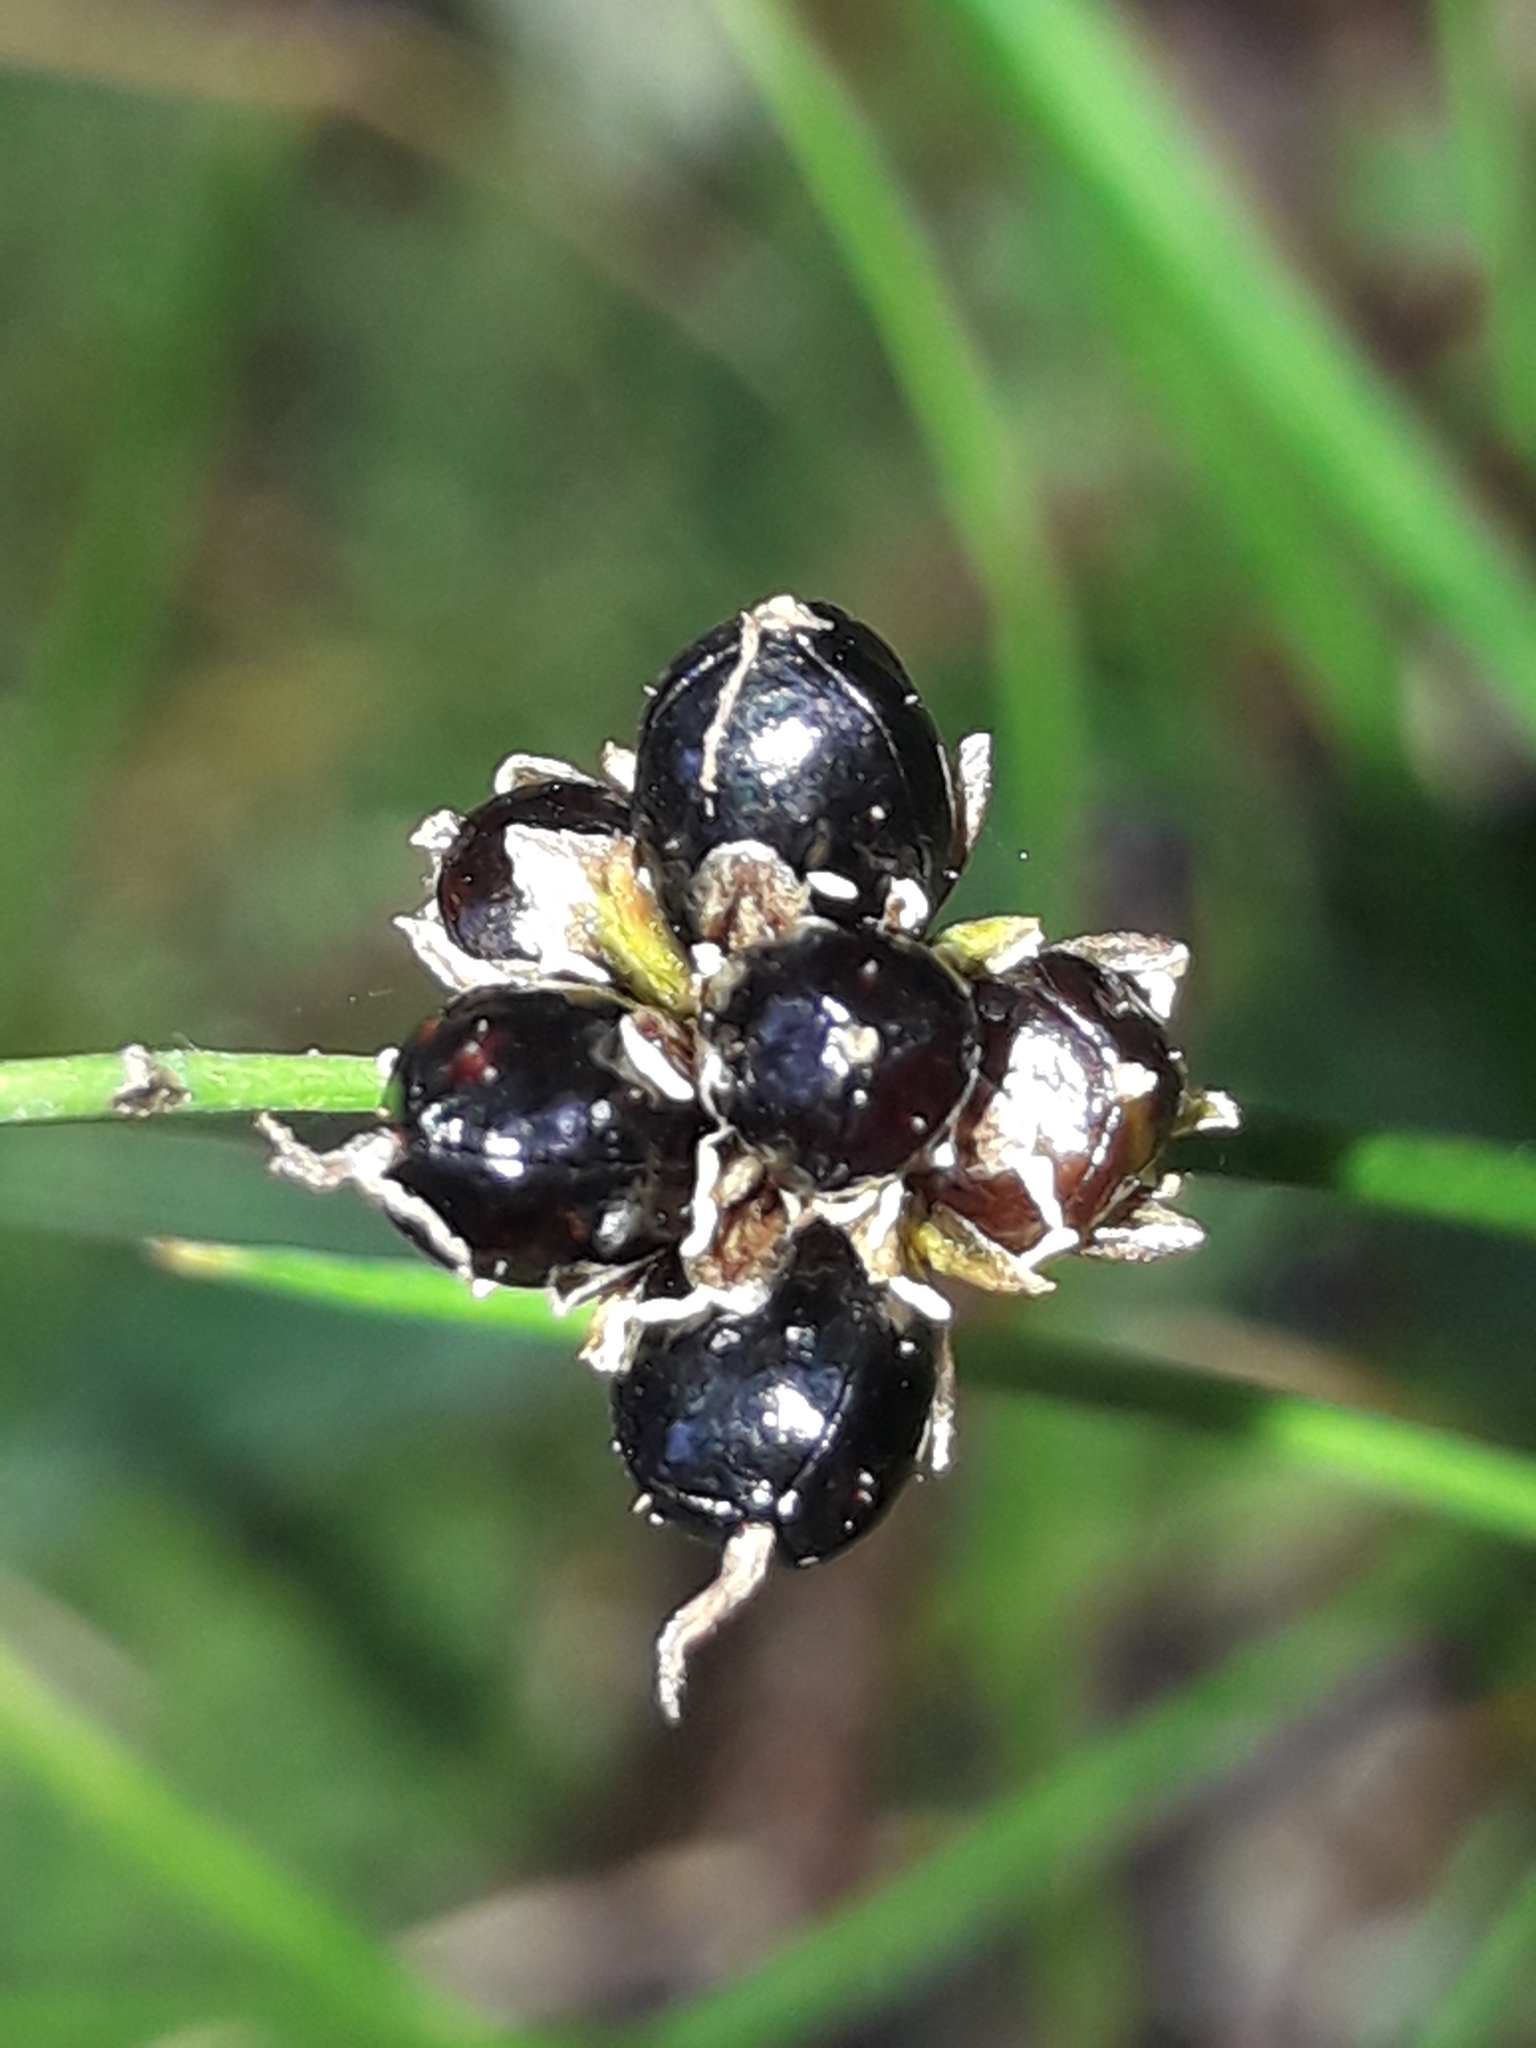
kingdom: Plantae
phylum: Tracheophyta
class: Liliopsida
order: Poales
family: Juncaceae
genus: Juncus
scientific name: Juncus novae-zelandiae
